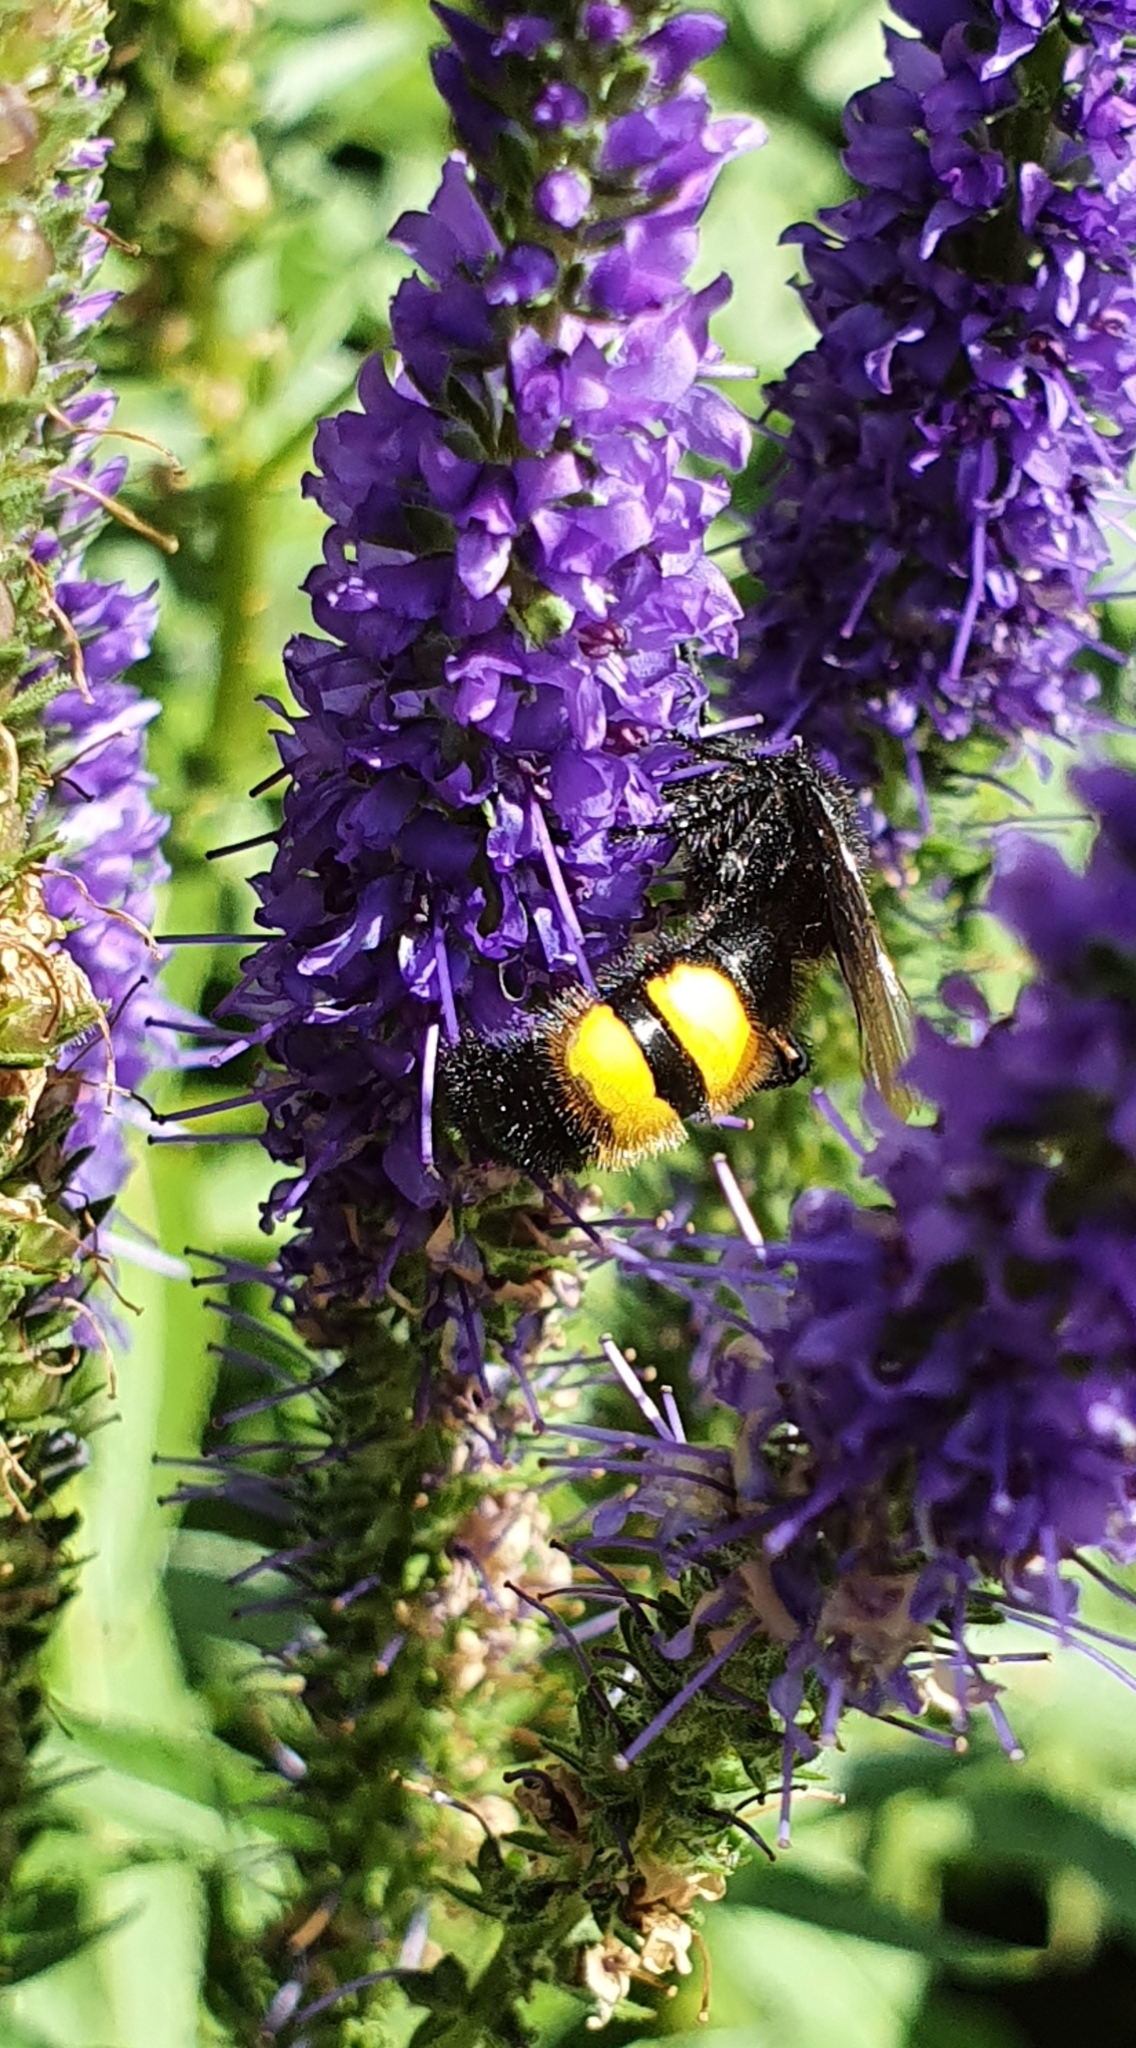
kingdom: Animalia
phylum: Arthropoda
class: Insecta
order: Hymenoptera
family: Scoliidae
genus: Scolia
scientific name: Scolia hirta
